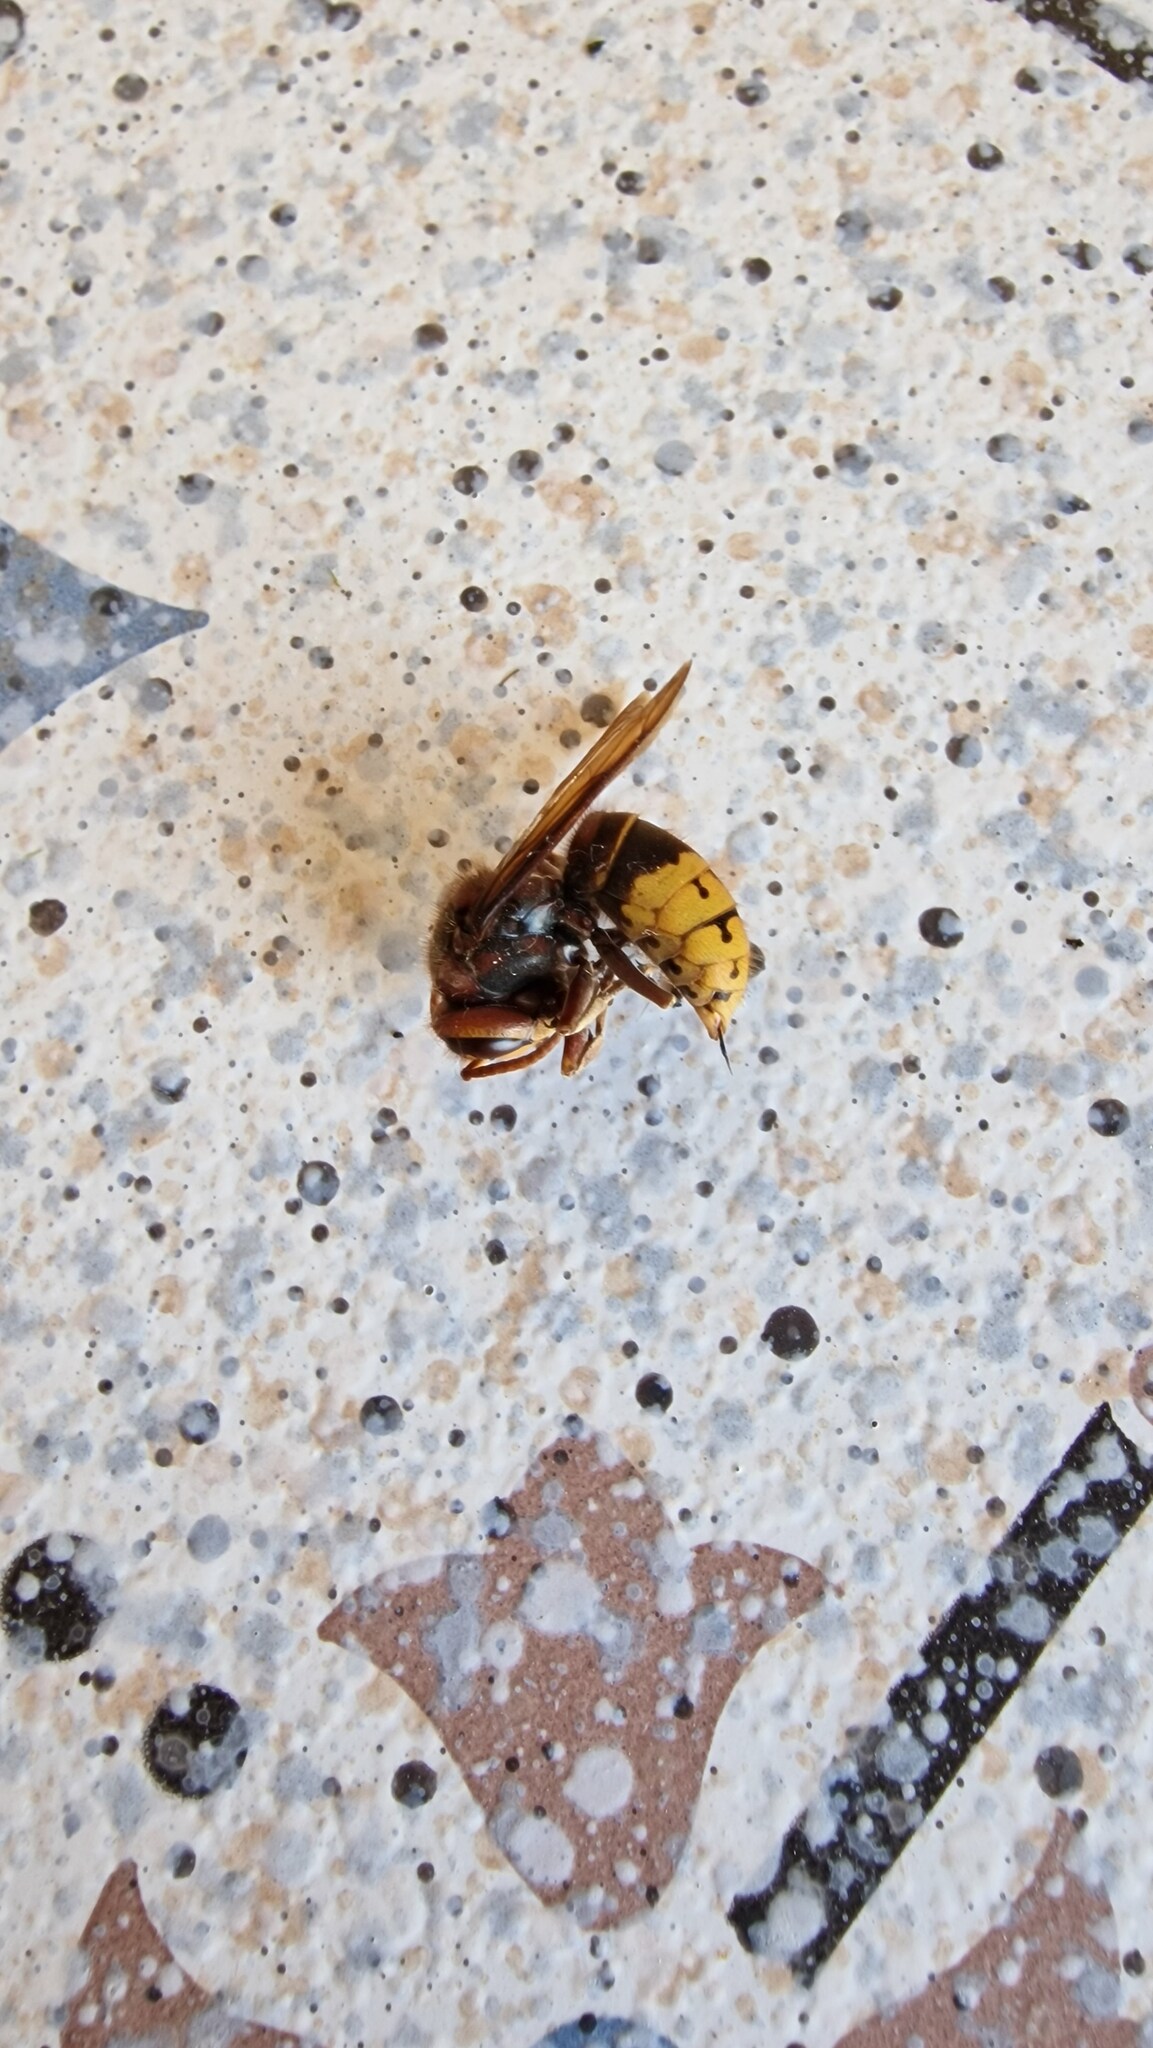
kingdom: Animalia
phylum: Arthropoda
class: Insecta
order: Hymenoptera
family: Vespidae
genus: Vespa
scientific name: Vespa crabro
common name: Hornet
